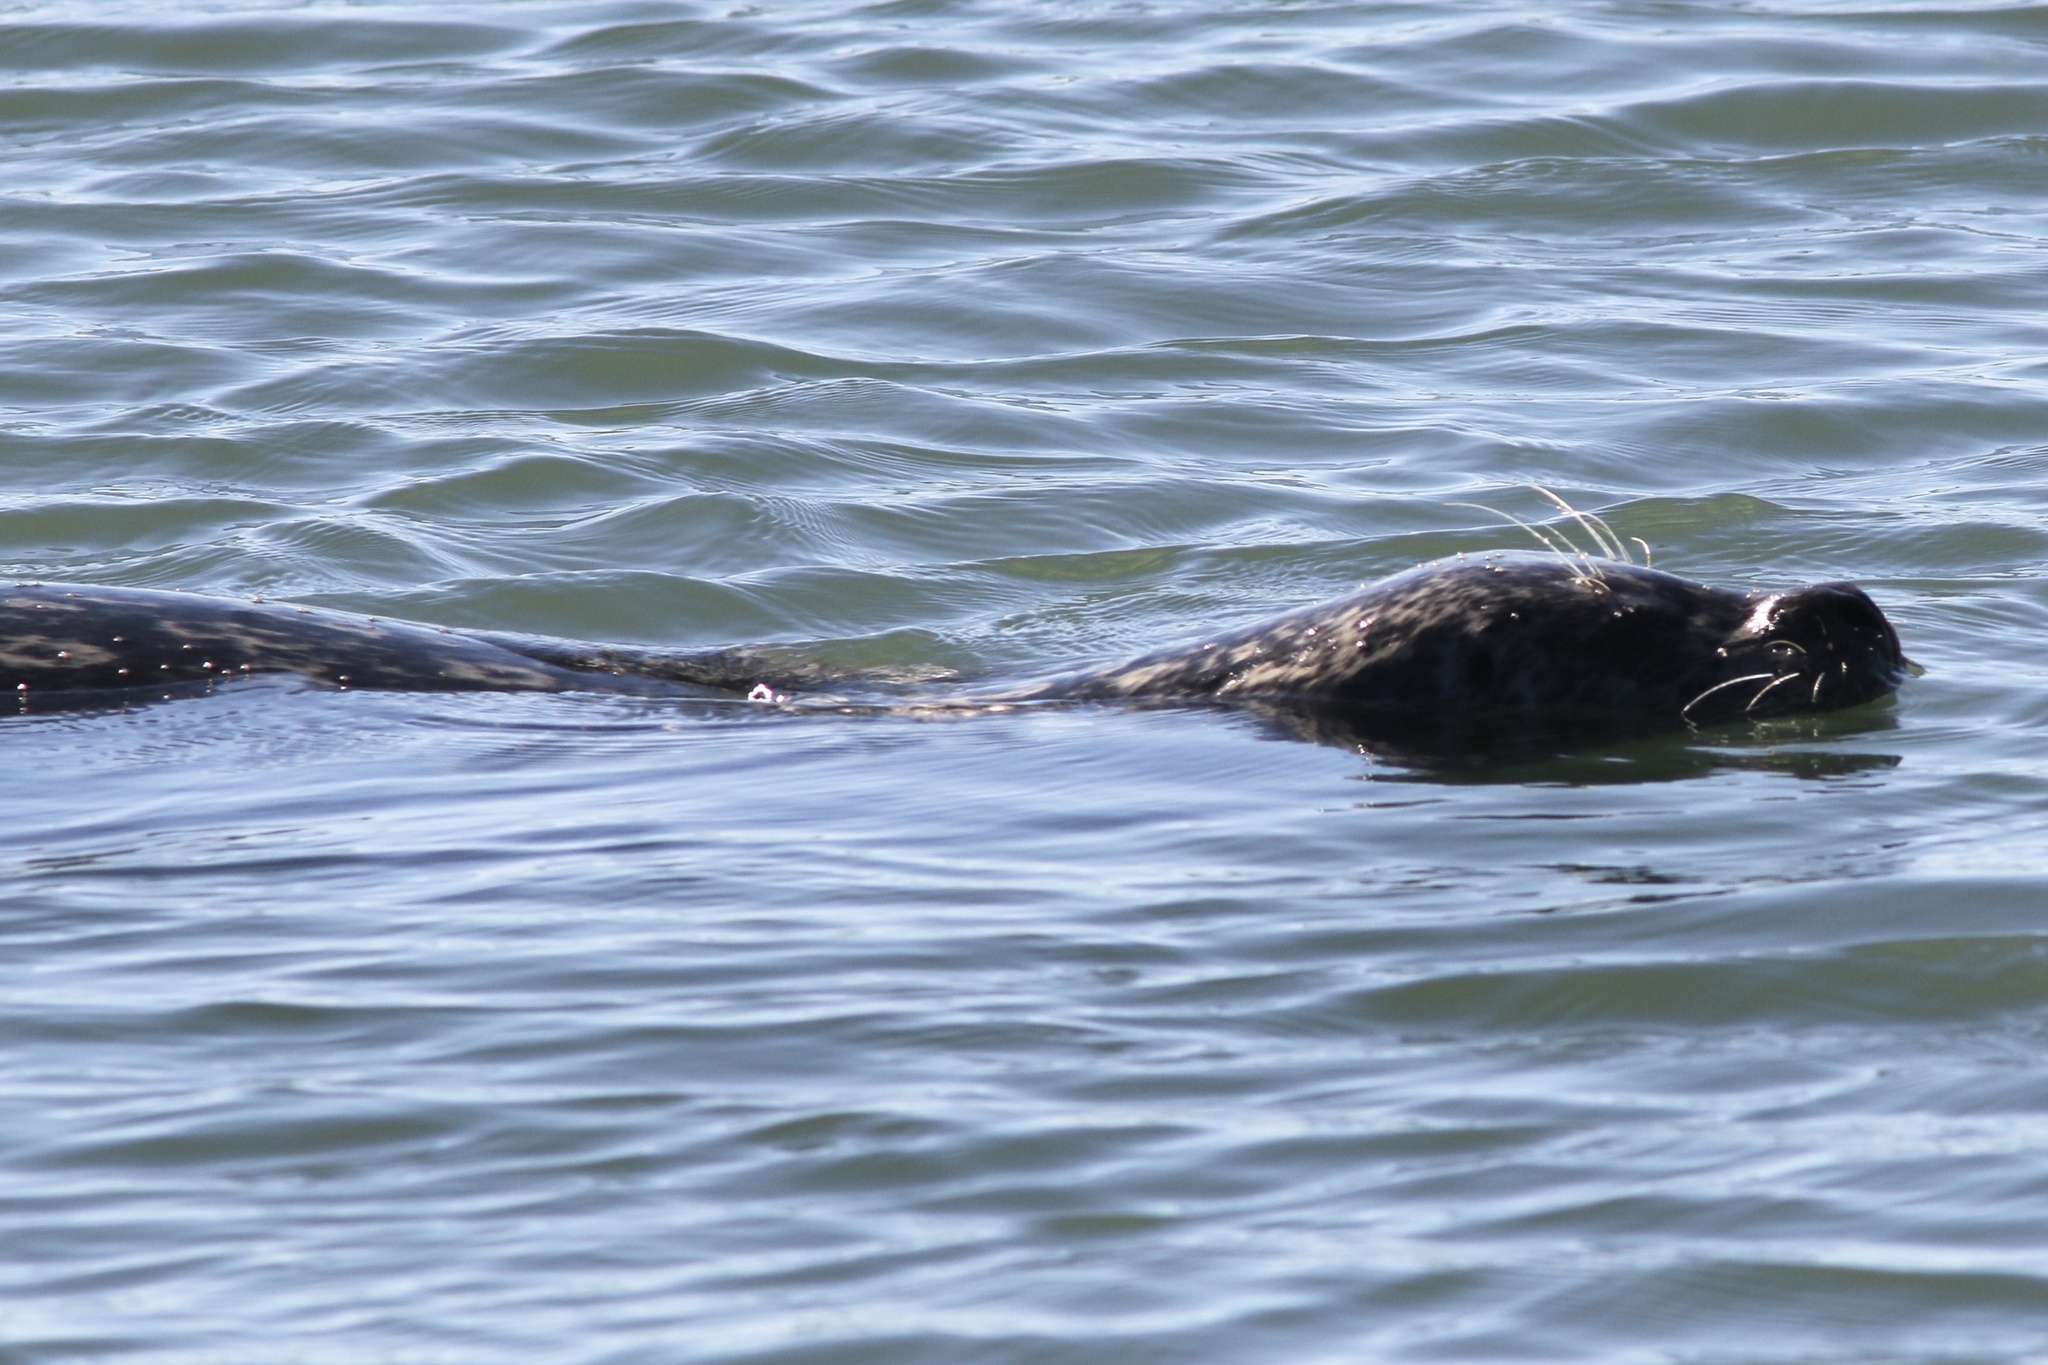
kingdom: Animalia
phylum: Chordata
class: Mammalia
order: Carnivora
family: Phocidae
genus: Phoca
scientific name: Phoca vitulina
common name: Harbor seal
